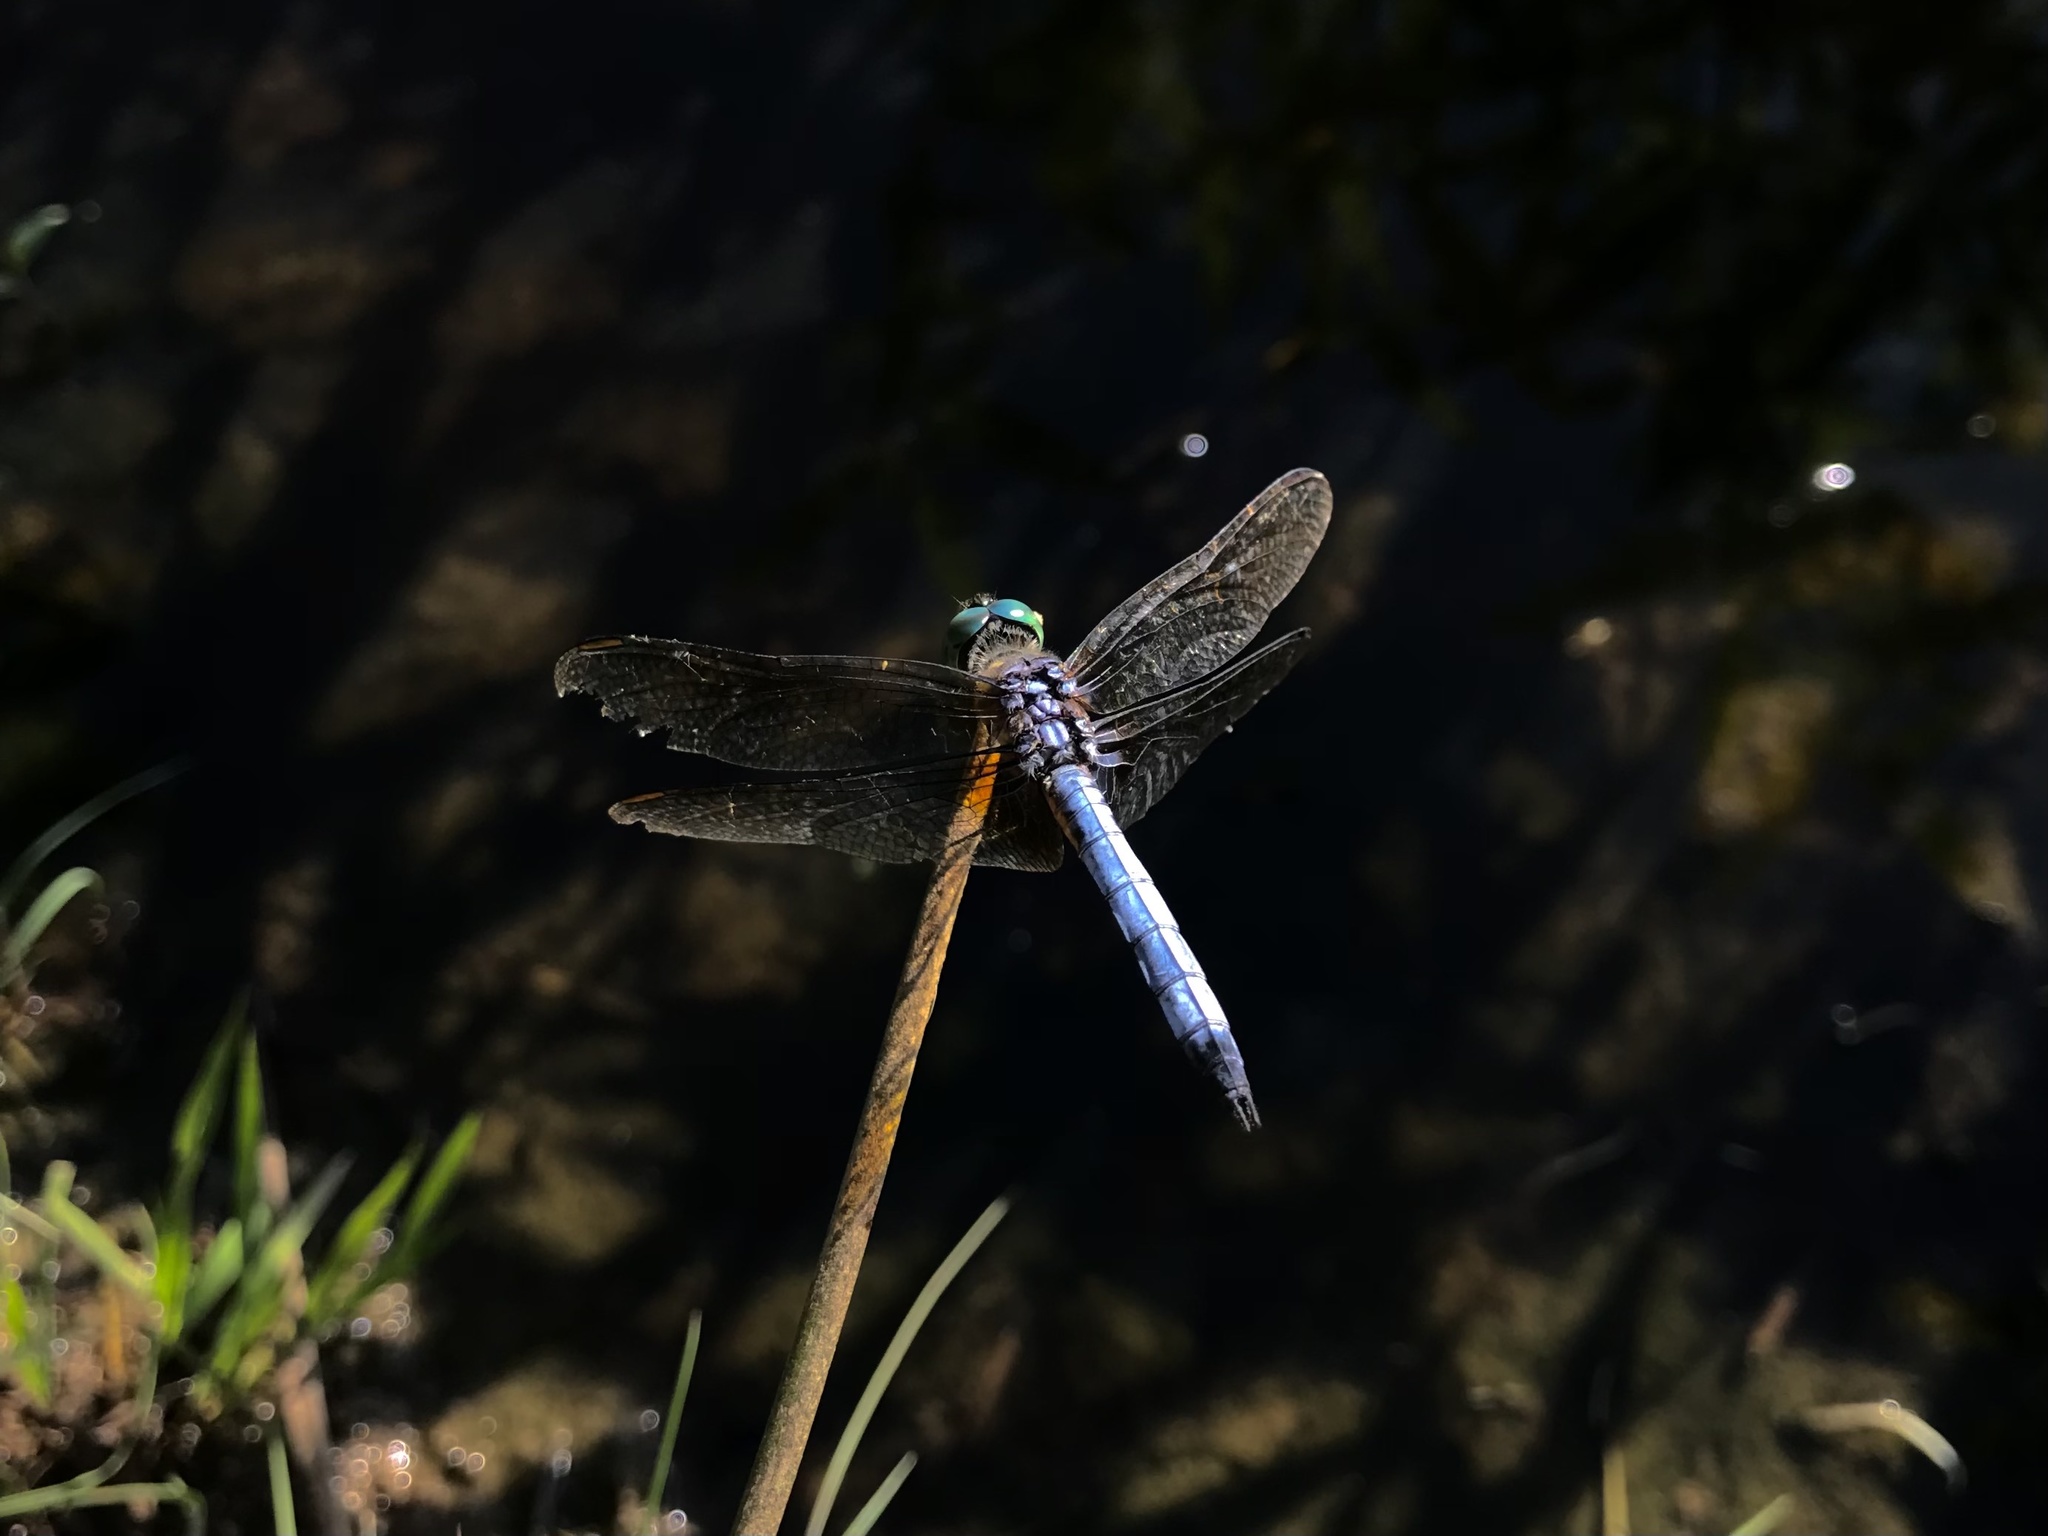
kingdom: Animalia
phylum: Arthropoda
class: Insecta
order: Odonata
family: Libellulidae
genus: Pachydiplax
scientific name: Pachydiplax longipennis
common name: Blue dasher
